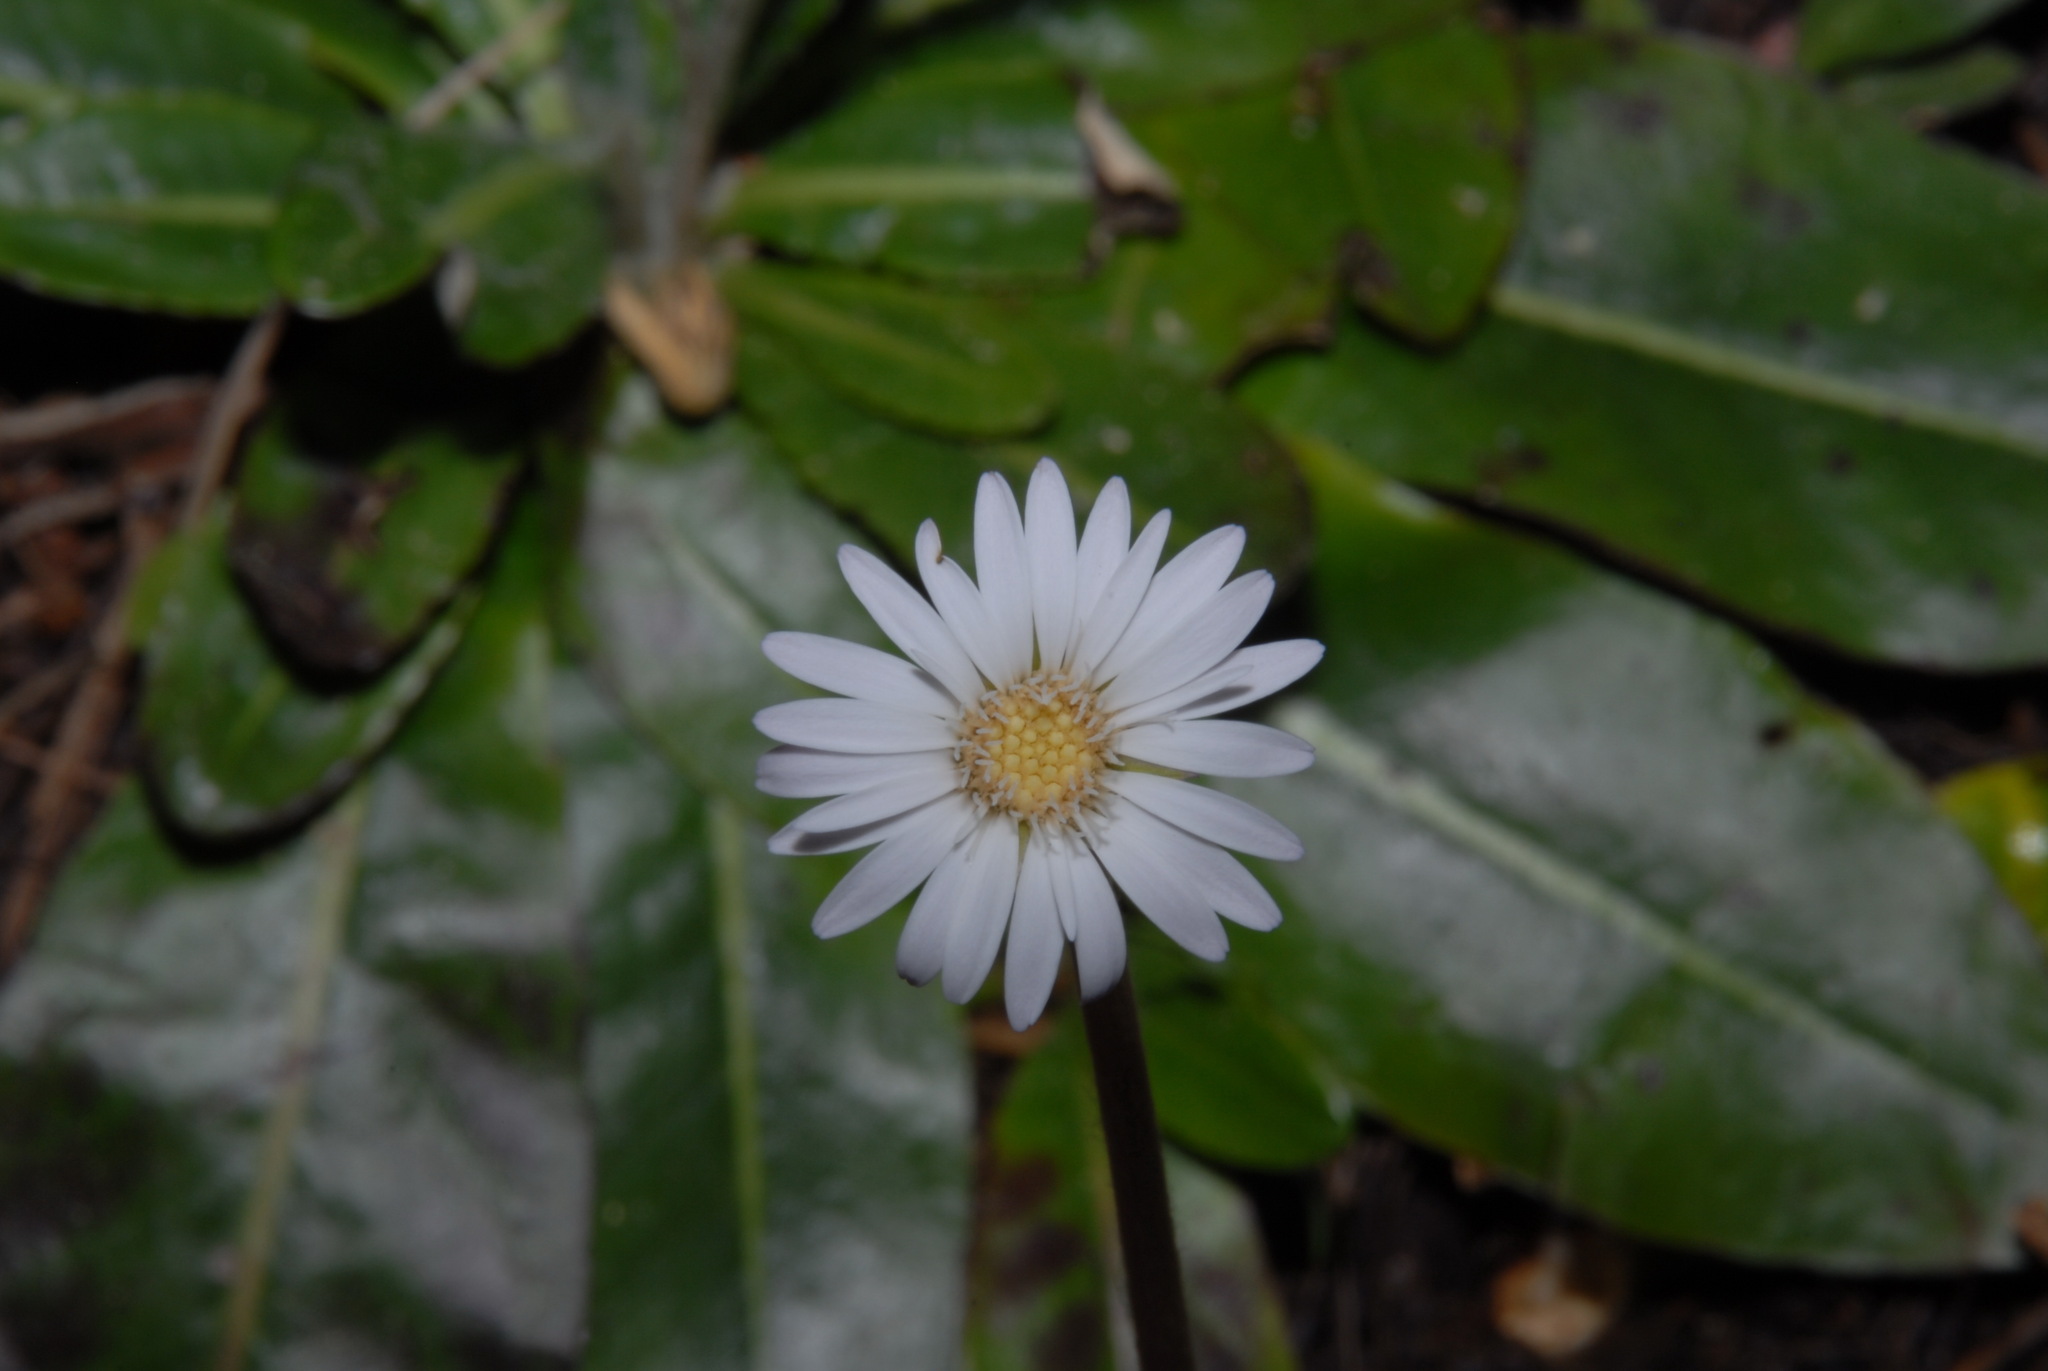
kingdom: Plantae
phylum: Tracheophyta
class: Magnoliopsida
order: Asterales
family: Asteraceae
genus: Chaptalia
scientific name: Chaptalia tomentosa
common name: Woolly sunbonnet
